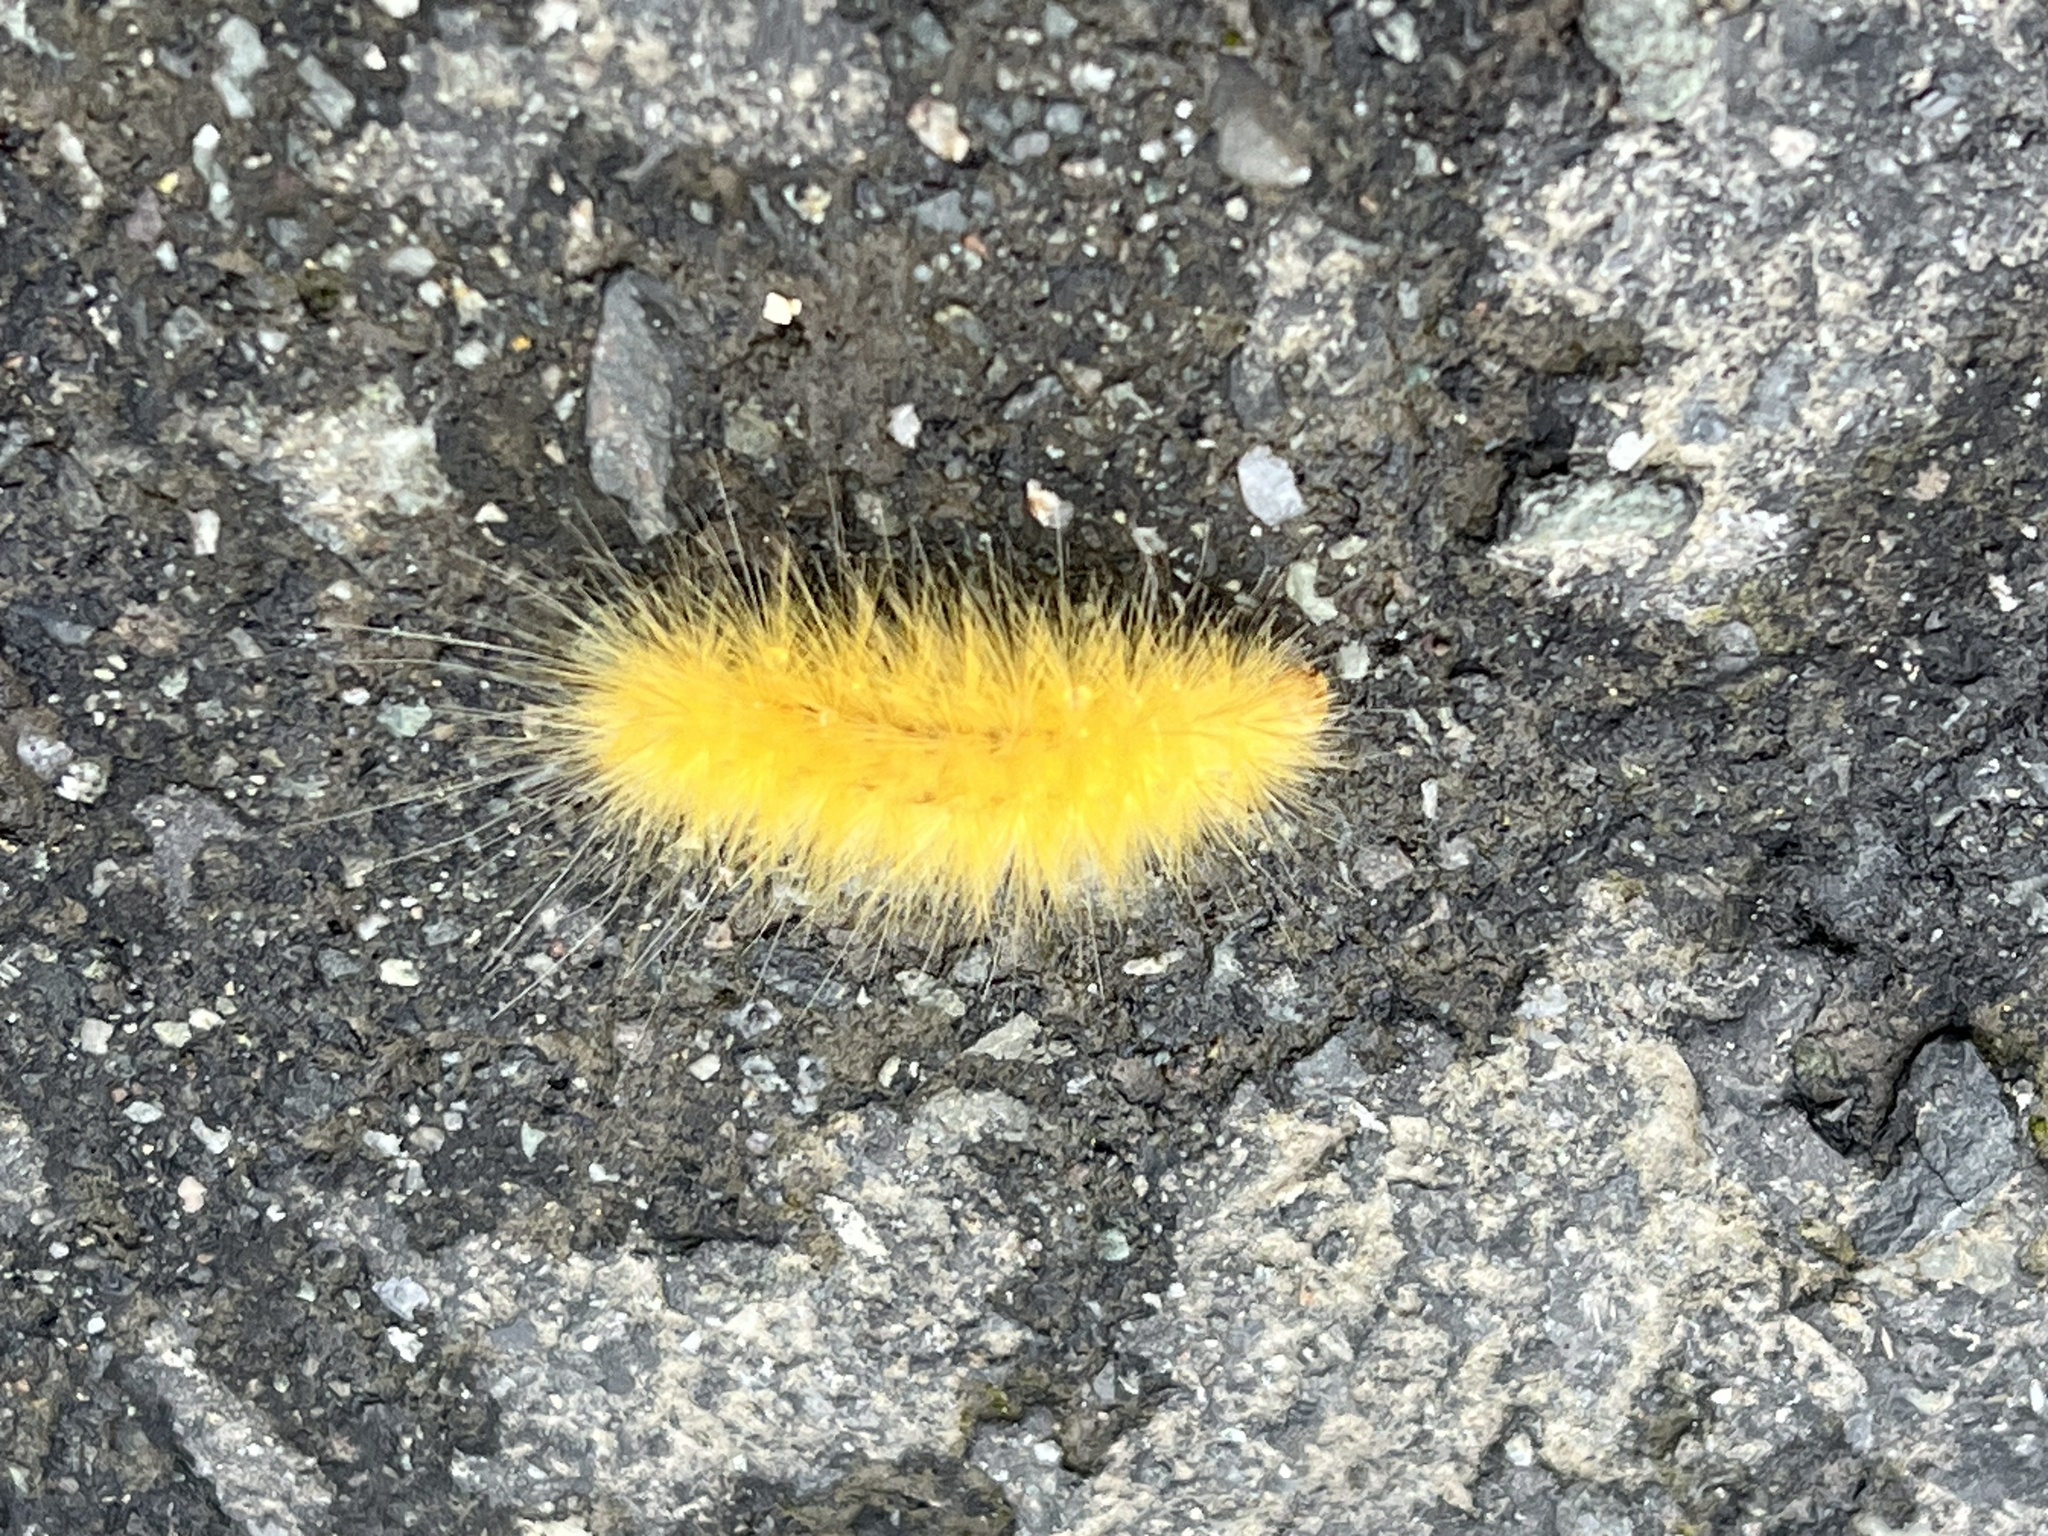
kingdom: Animalia
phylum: Arthropoda
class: Insecta
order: Lepidoptera
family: Erebidae
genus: Spilosoma
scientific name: Spilosoma virginica
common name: Virginia tiger moth
